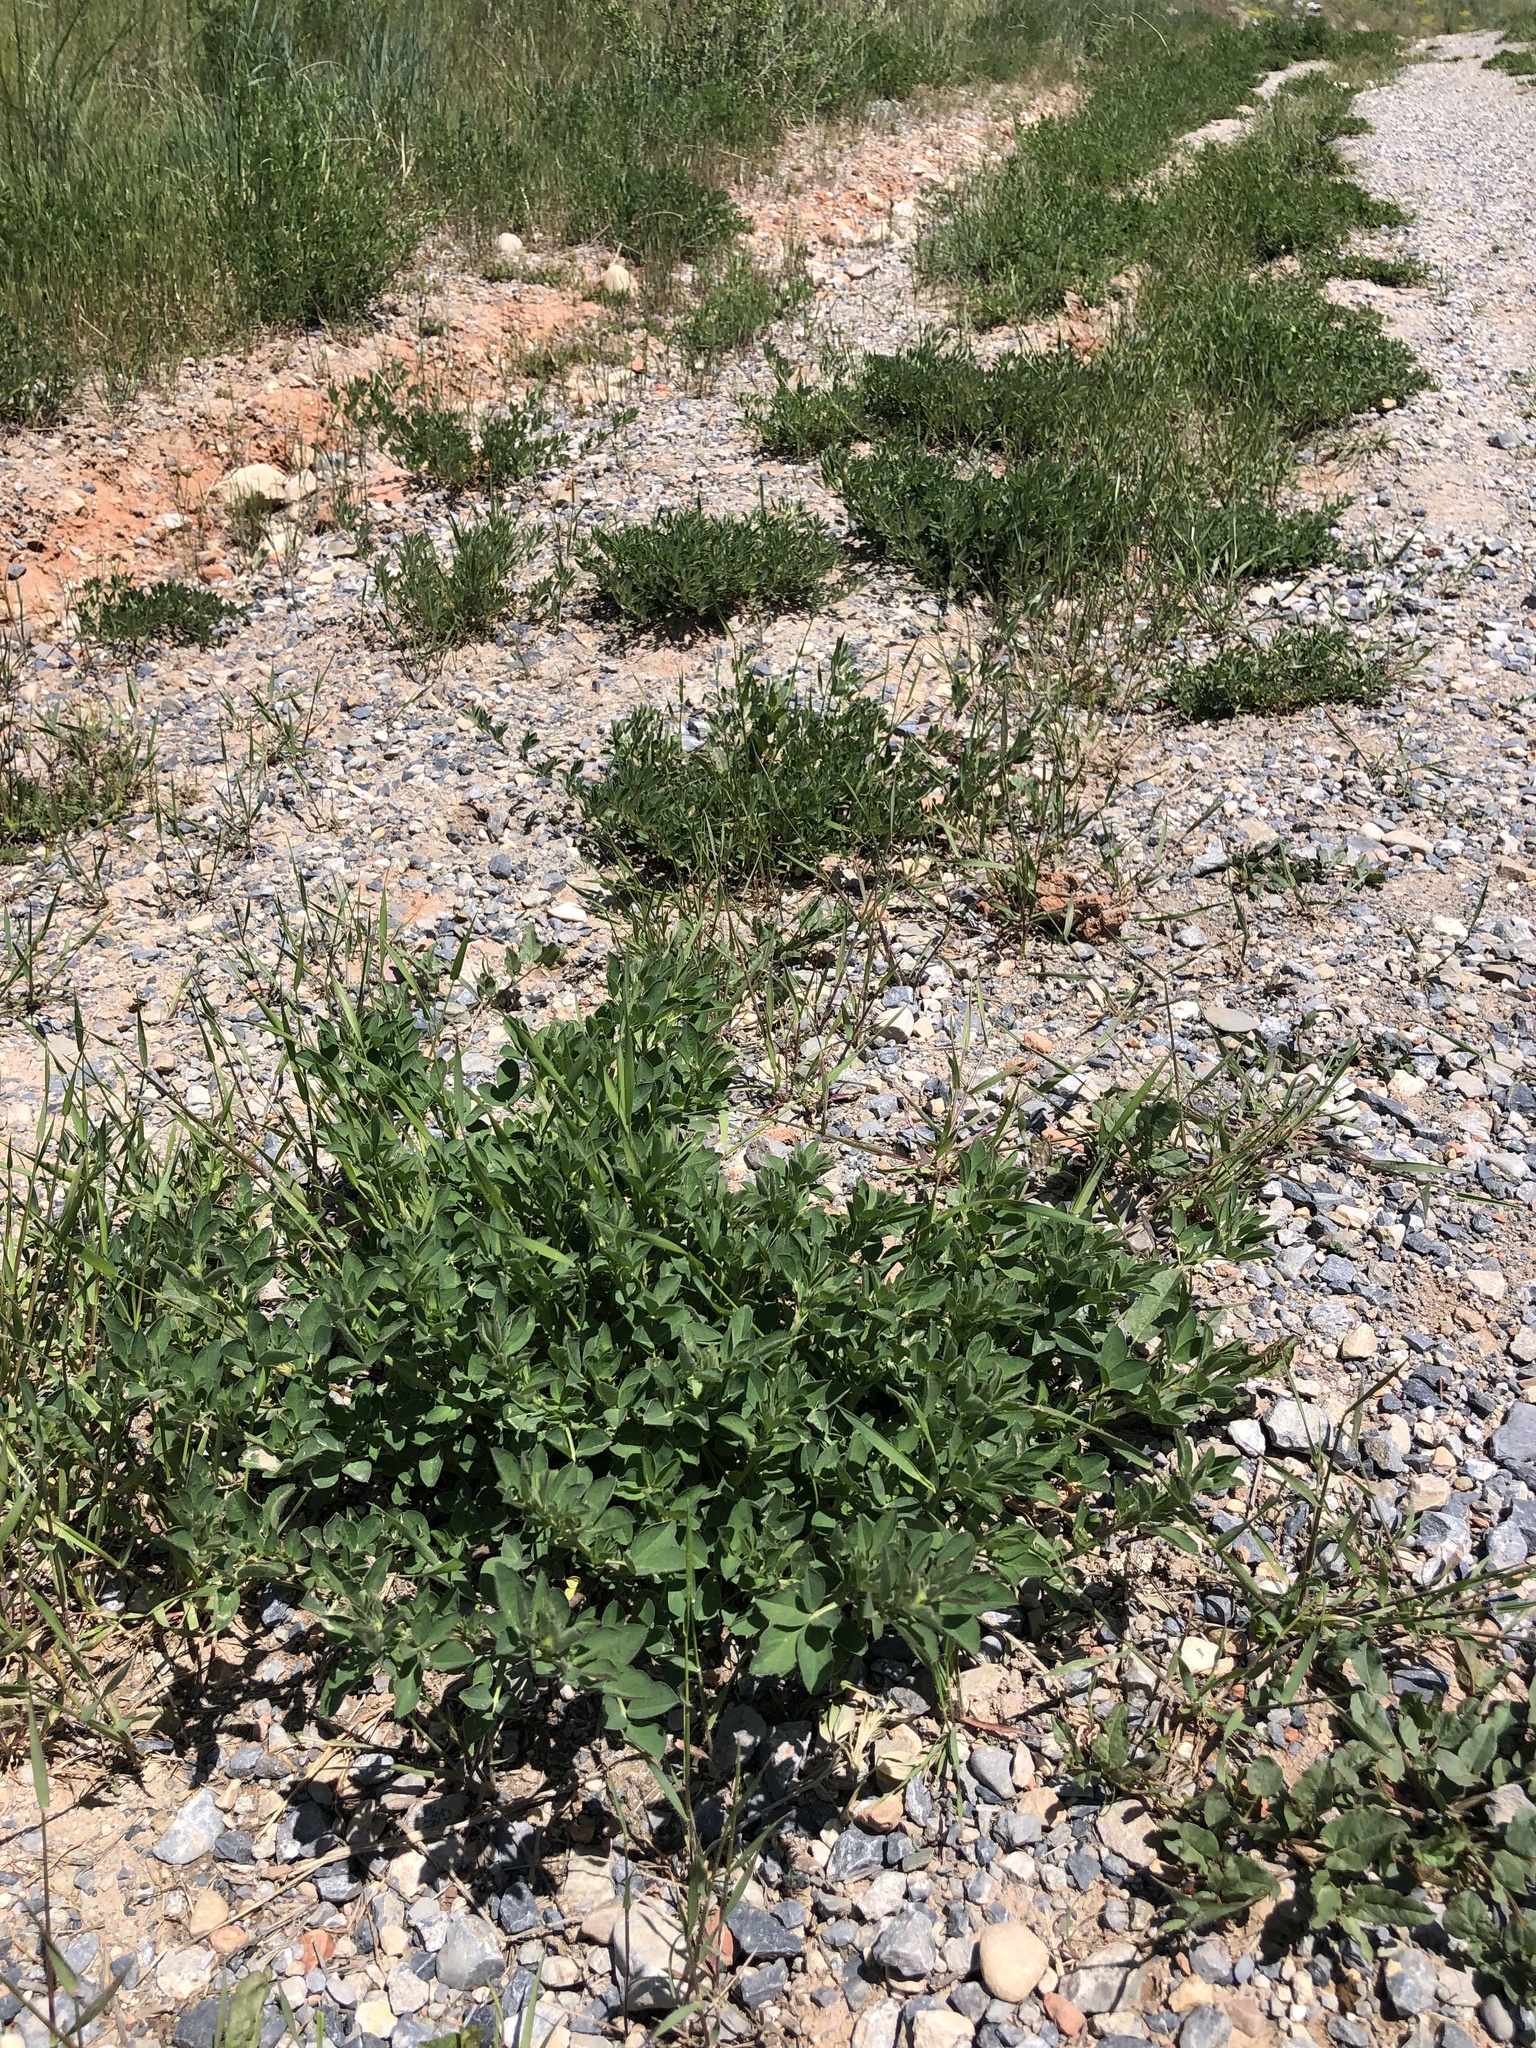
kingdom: Plantae
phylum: Tracheophyta
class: Magnoliopsida
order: Fabales
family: Fabaceae
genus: Medicago
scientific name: Medicago sativa
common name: Alfalfa
